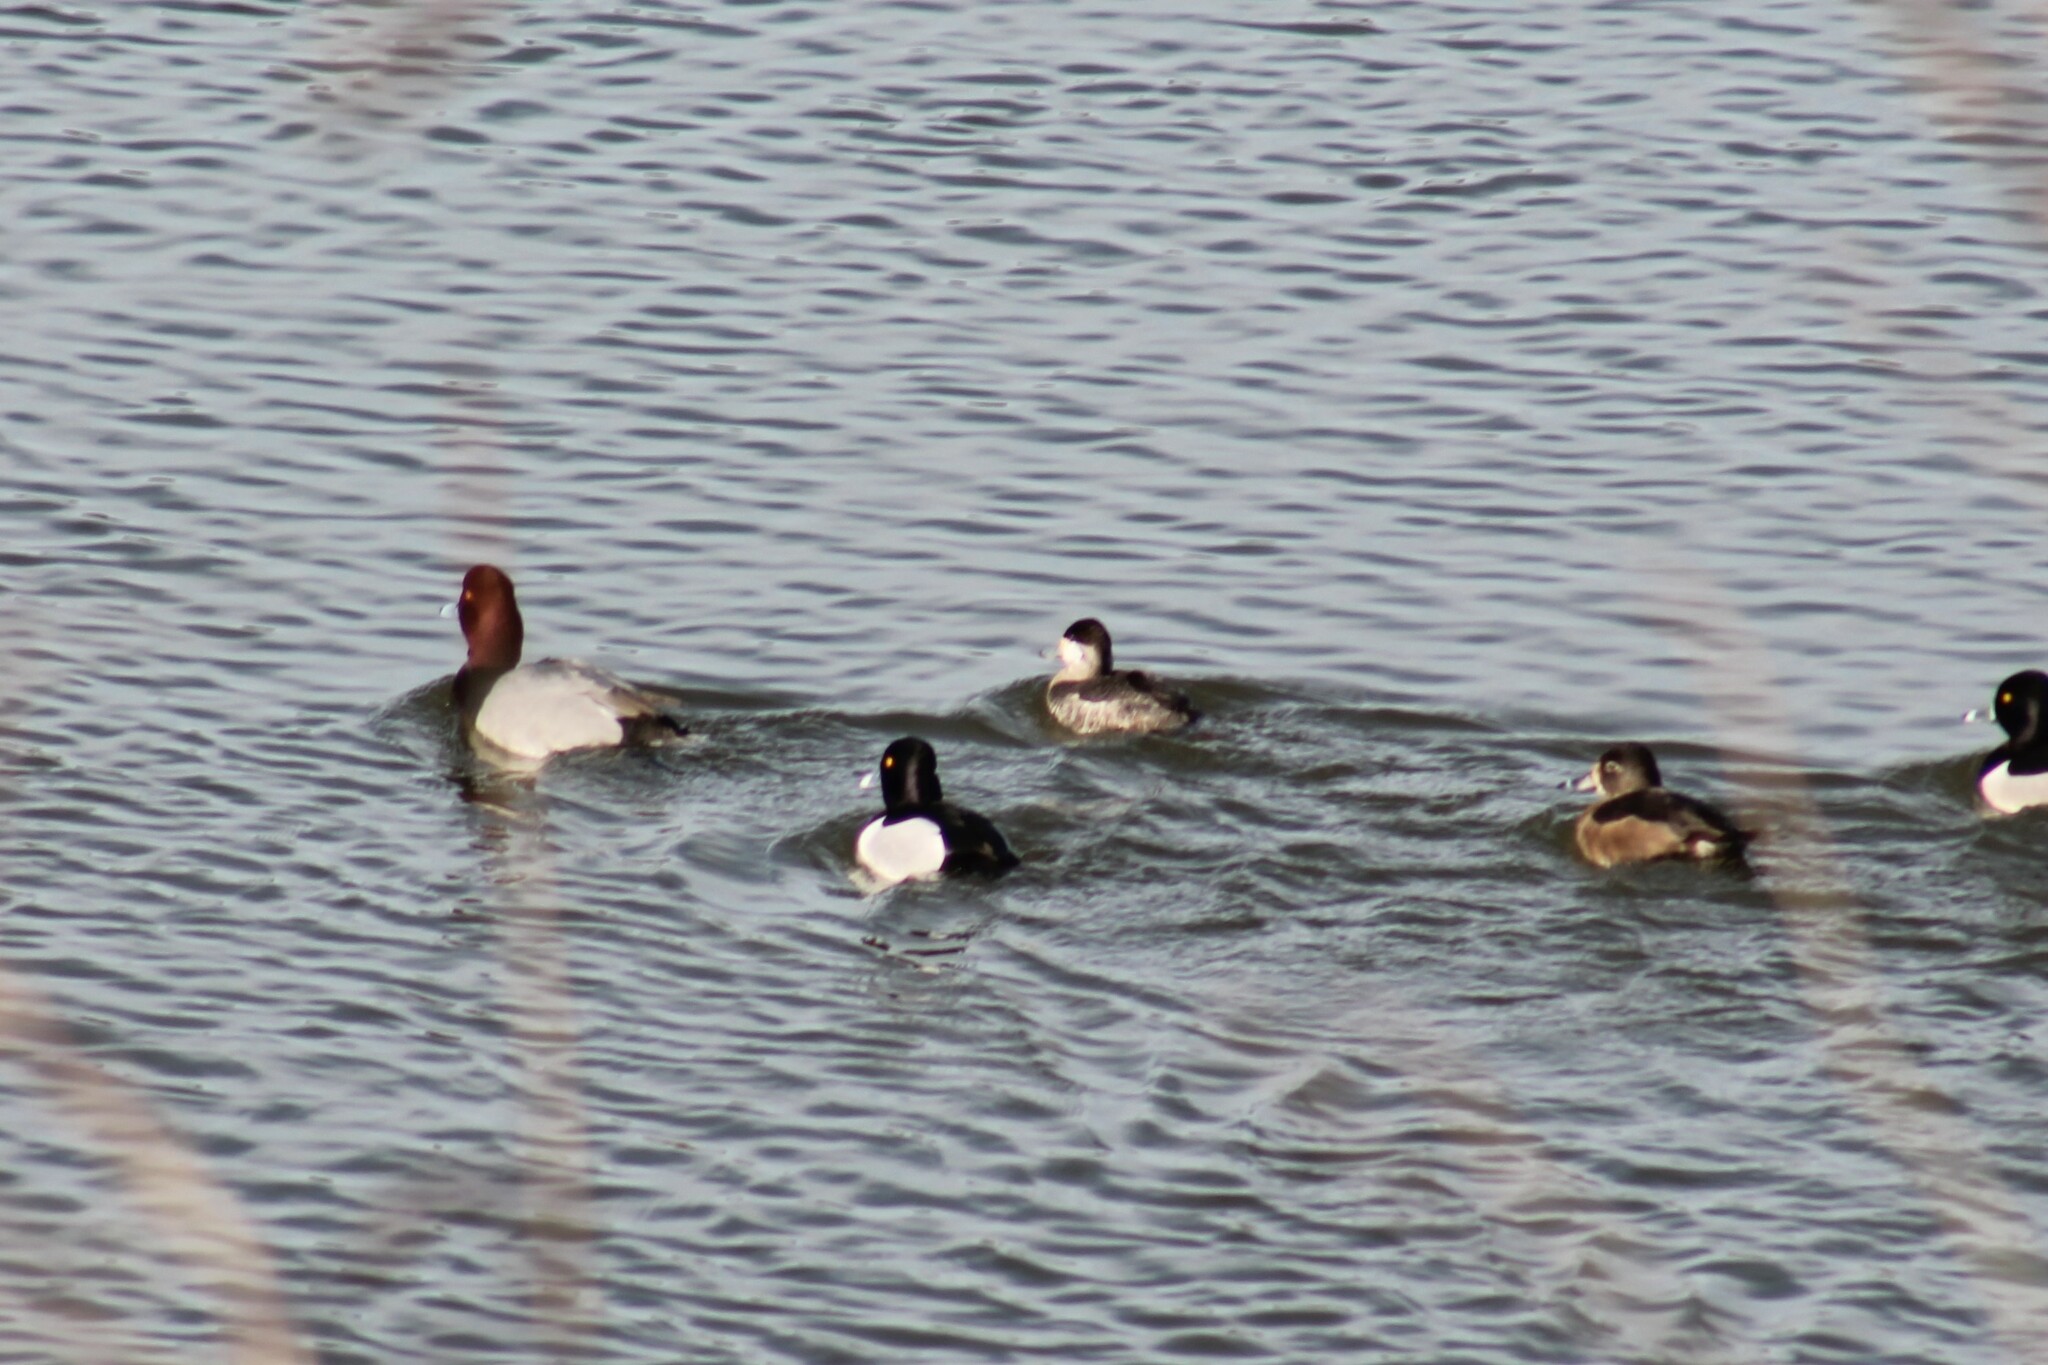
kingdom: Animalia
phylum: Chordata
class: Aves
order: Anseriformes
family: Anatidae
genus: Aythya
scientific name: Aythya collaris
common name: Ring-necked duck
